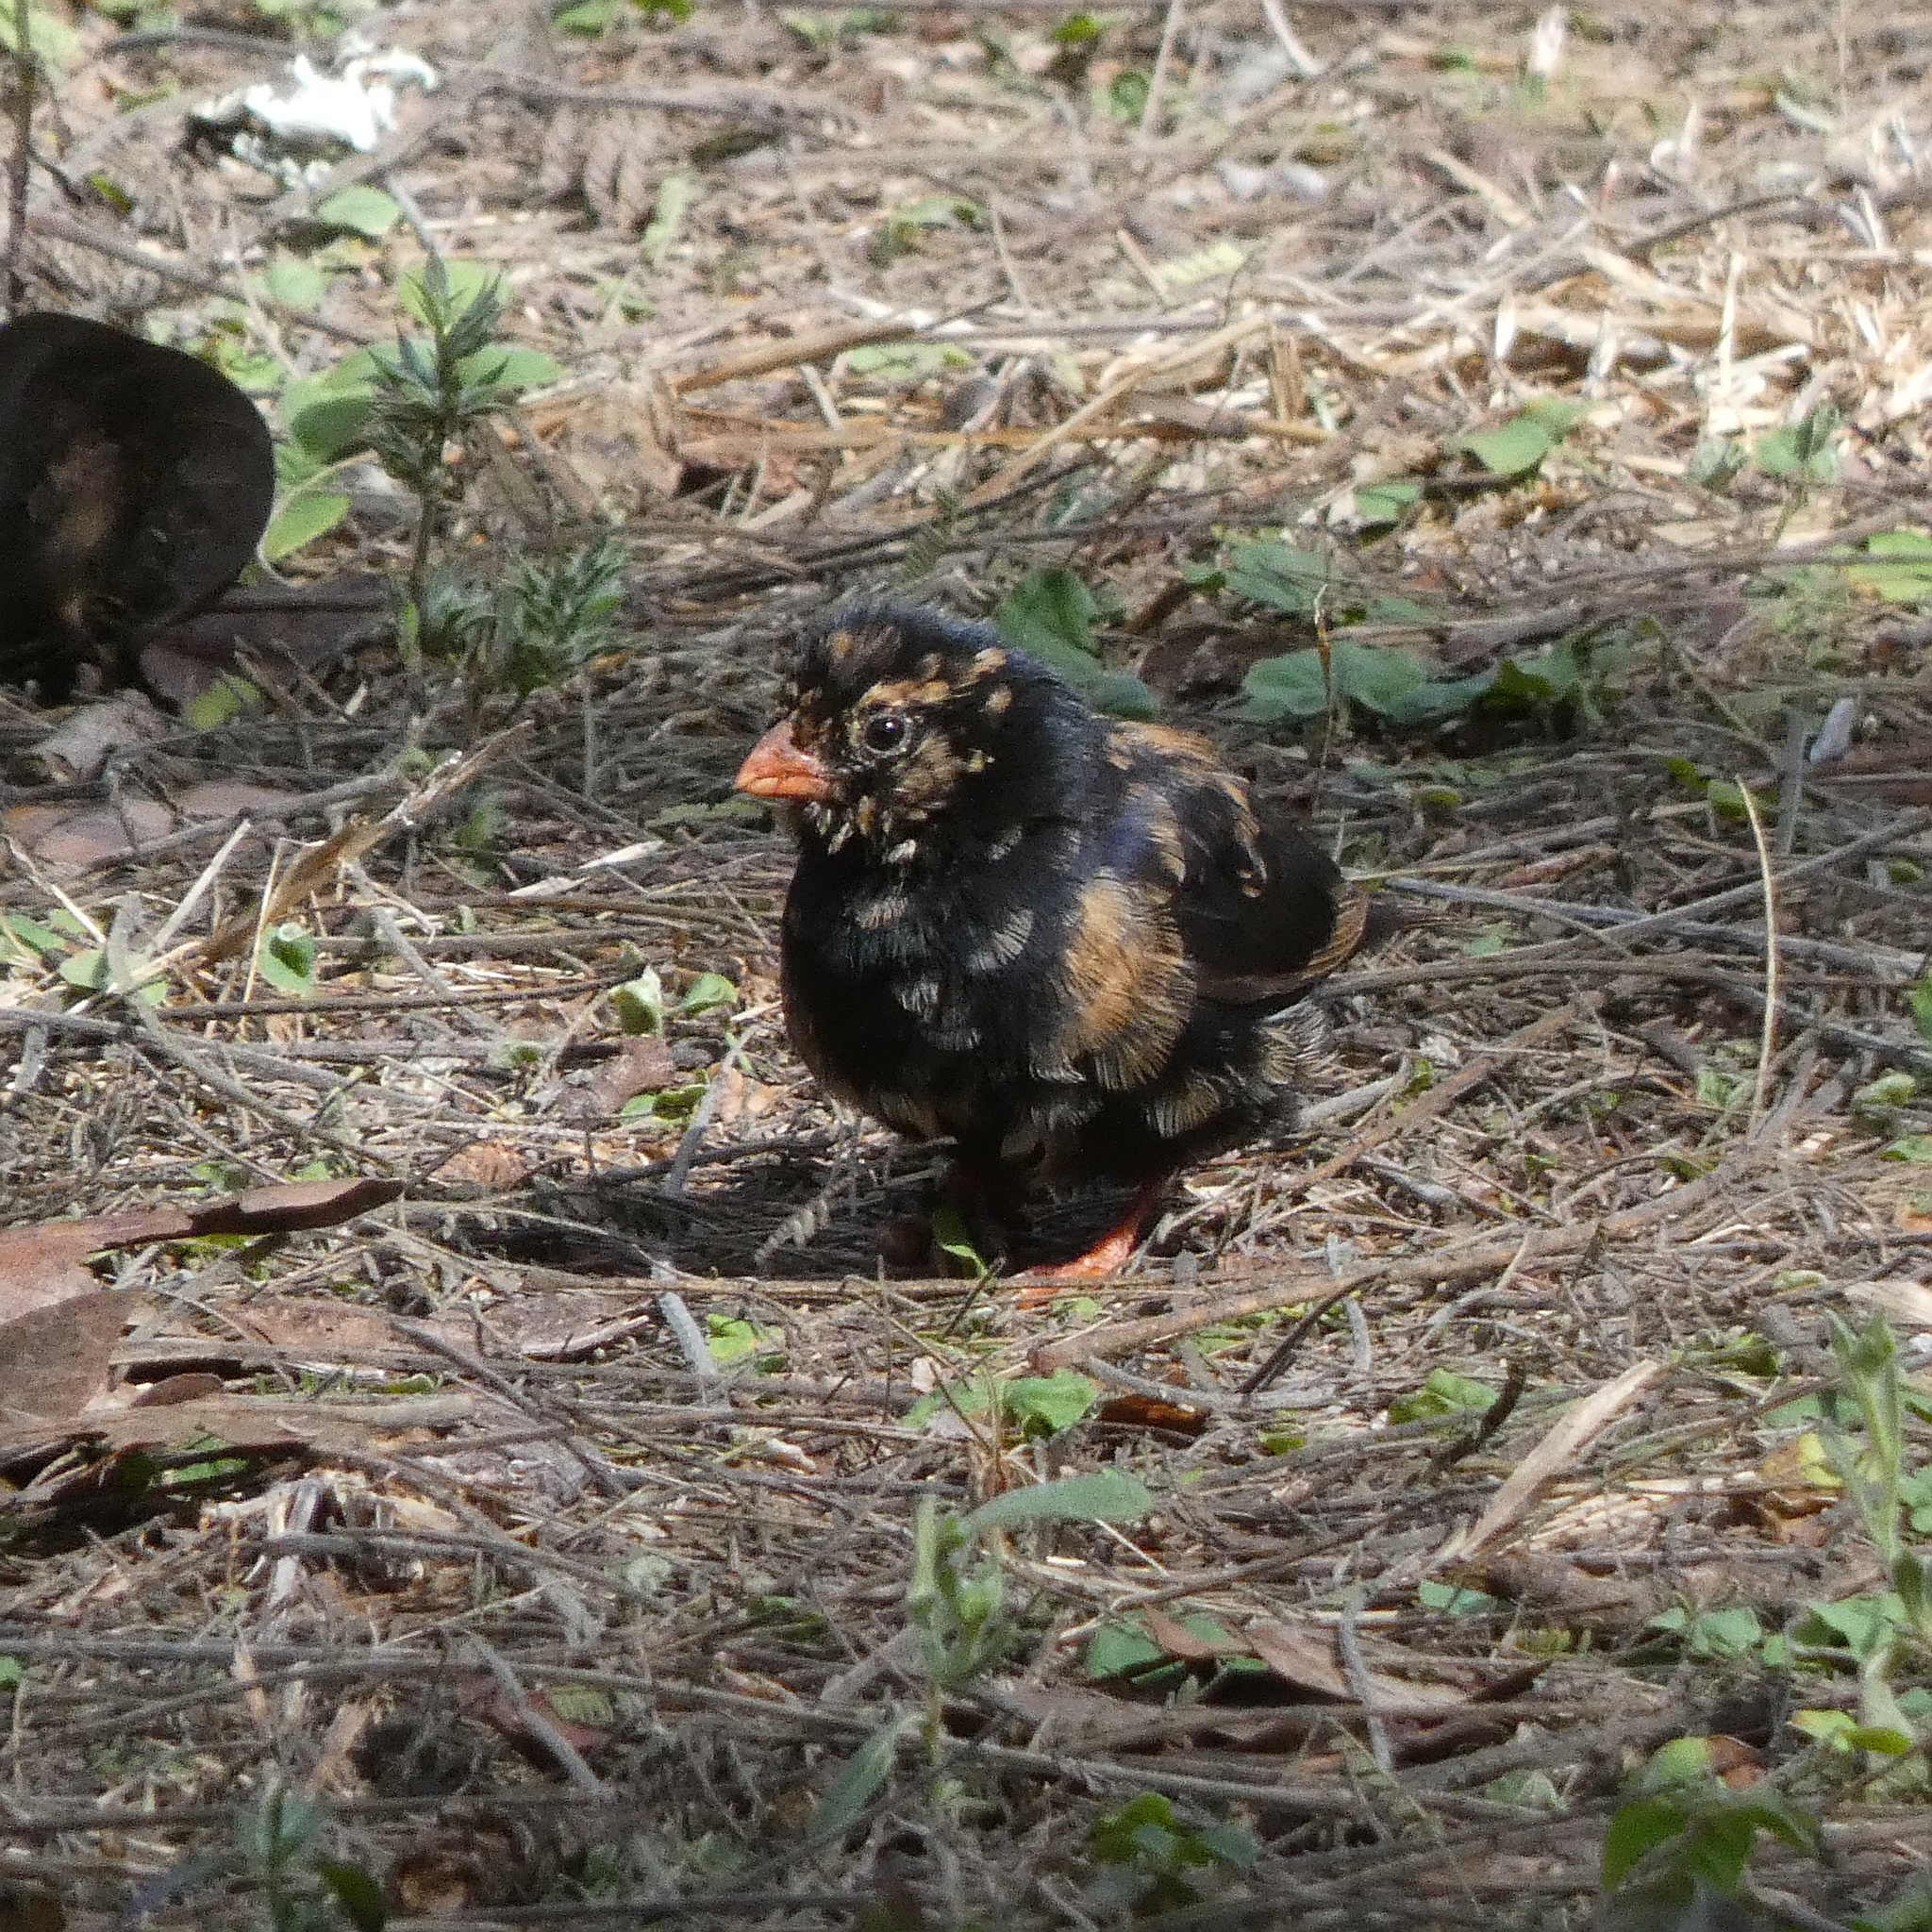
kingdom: Animalia
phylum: Chordata
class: Aves
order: Passeriformes
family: Viduidae
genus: Vidua
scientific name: Vidua chalybeata
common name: Village indigobird
